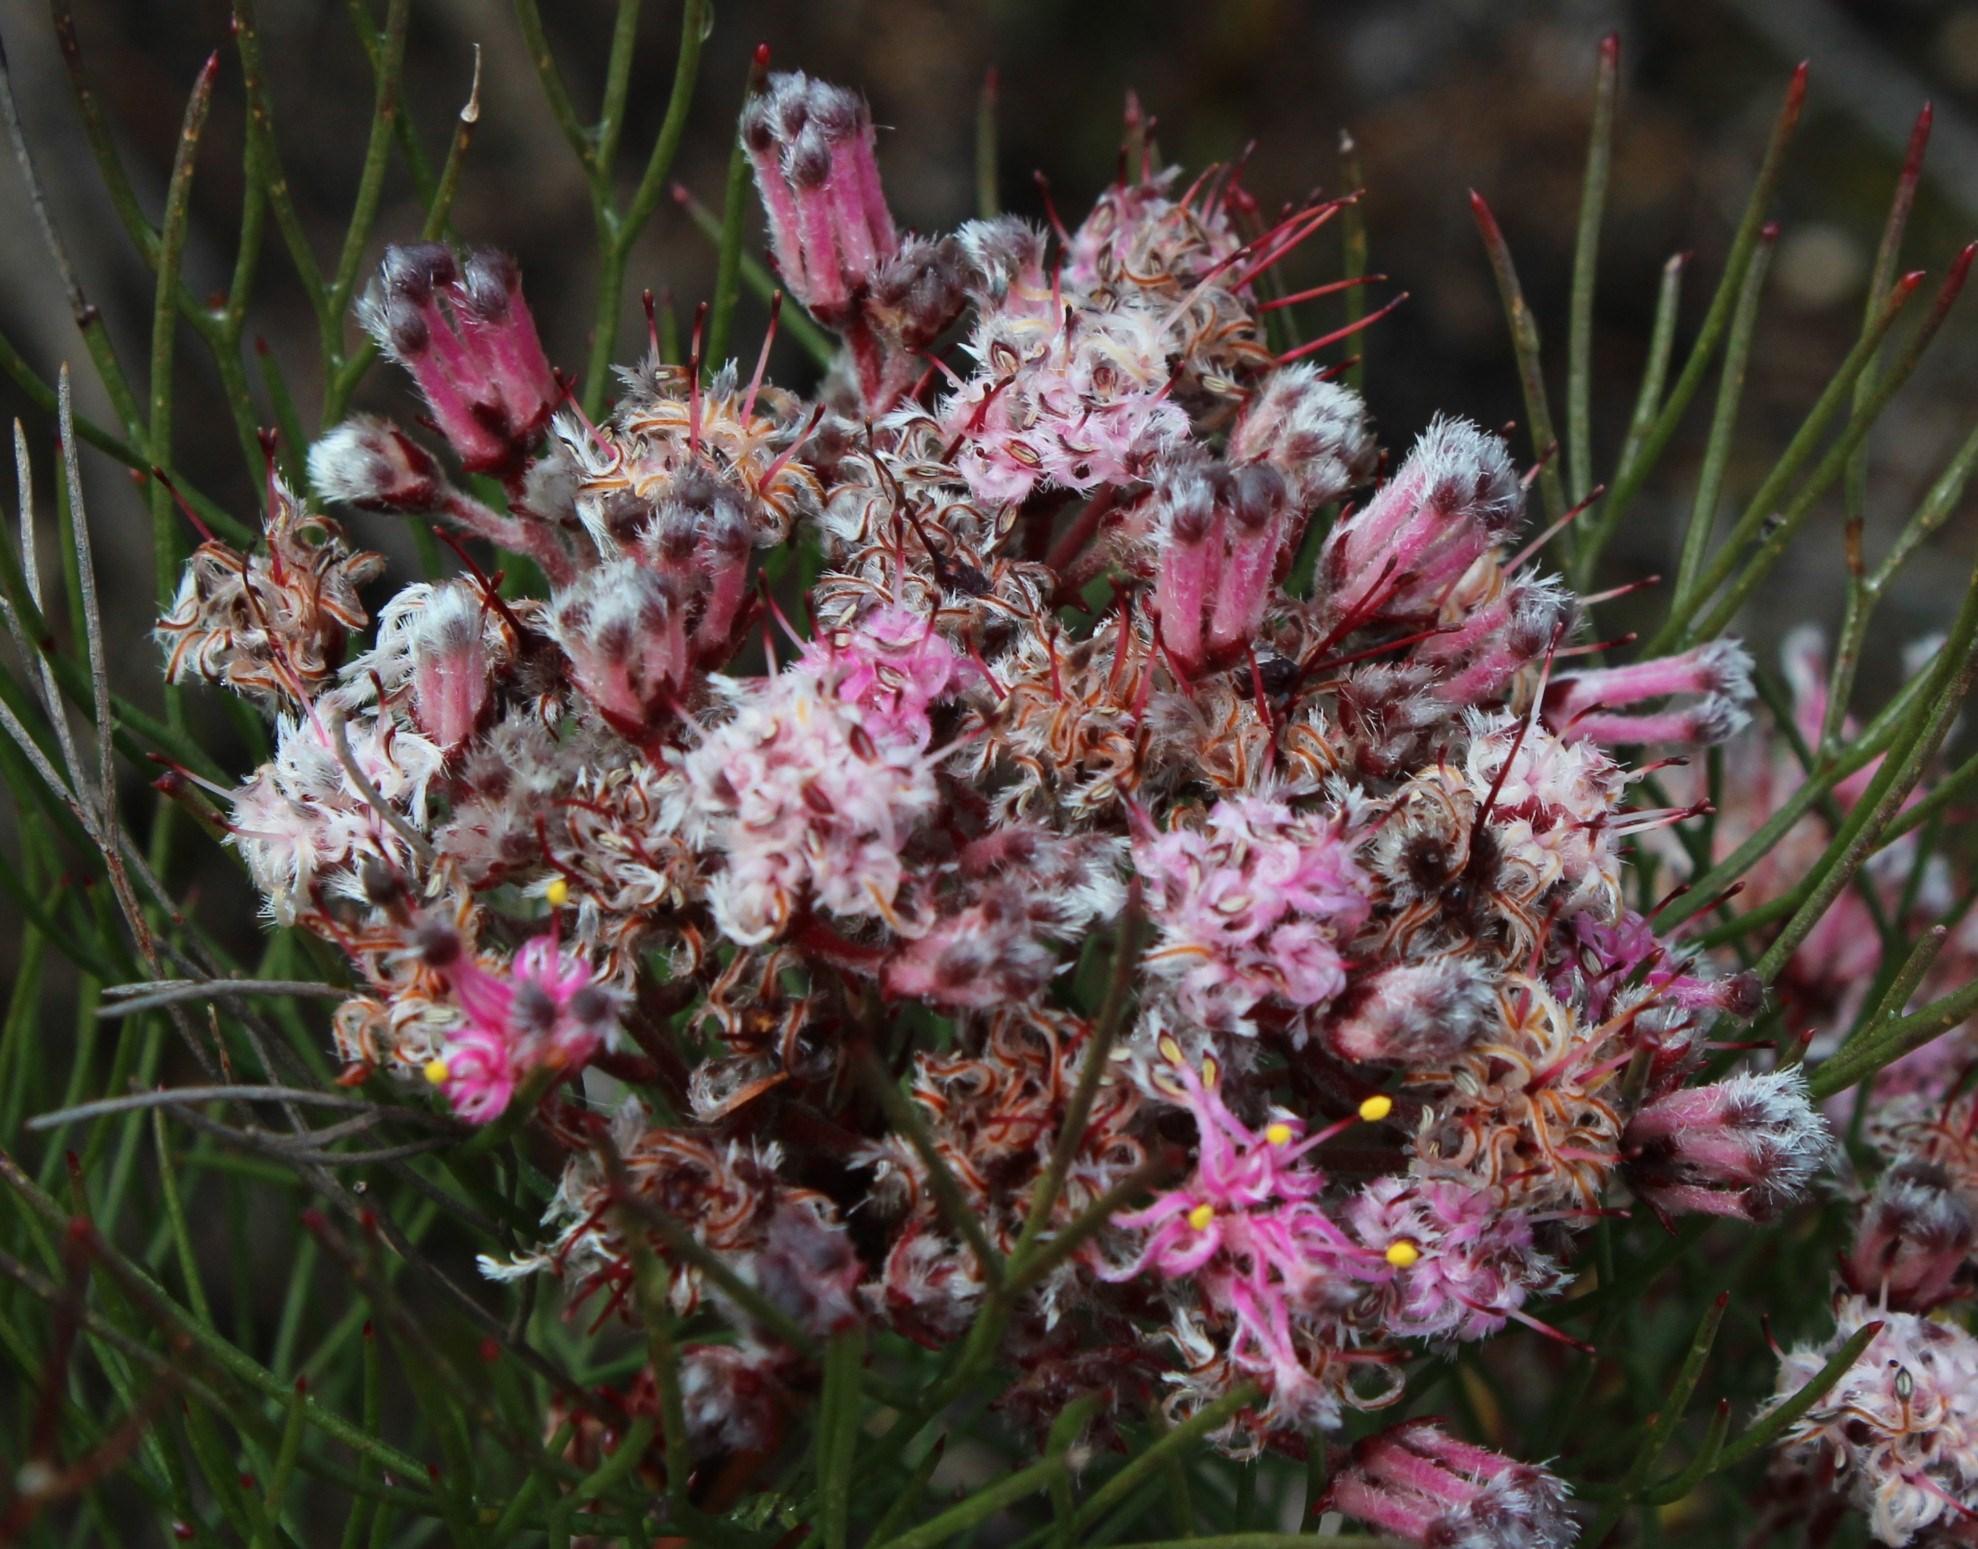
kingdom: Plantae
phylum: Tracheophyta
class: Magnoliopsida
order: Proteales
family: Proteaceae
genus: Serruria
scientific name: Serruria fasciflora
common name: Common pin spiderhead
